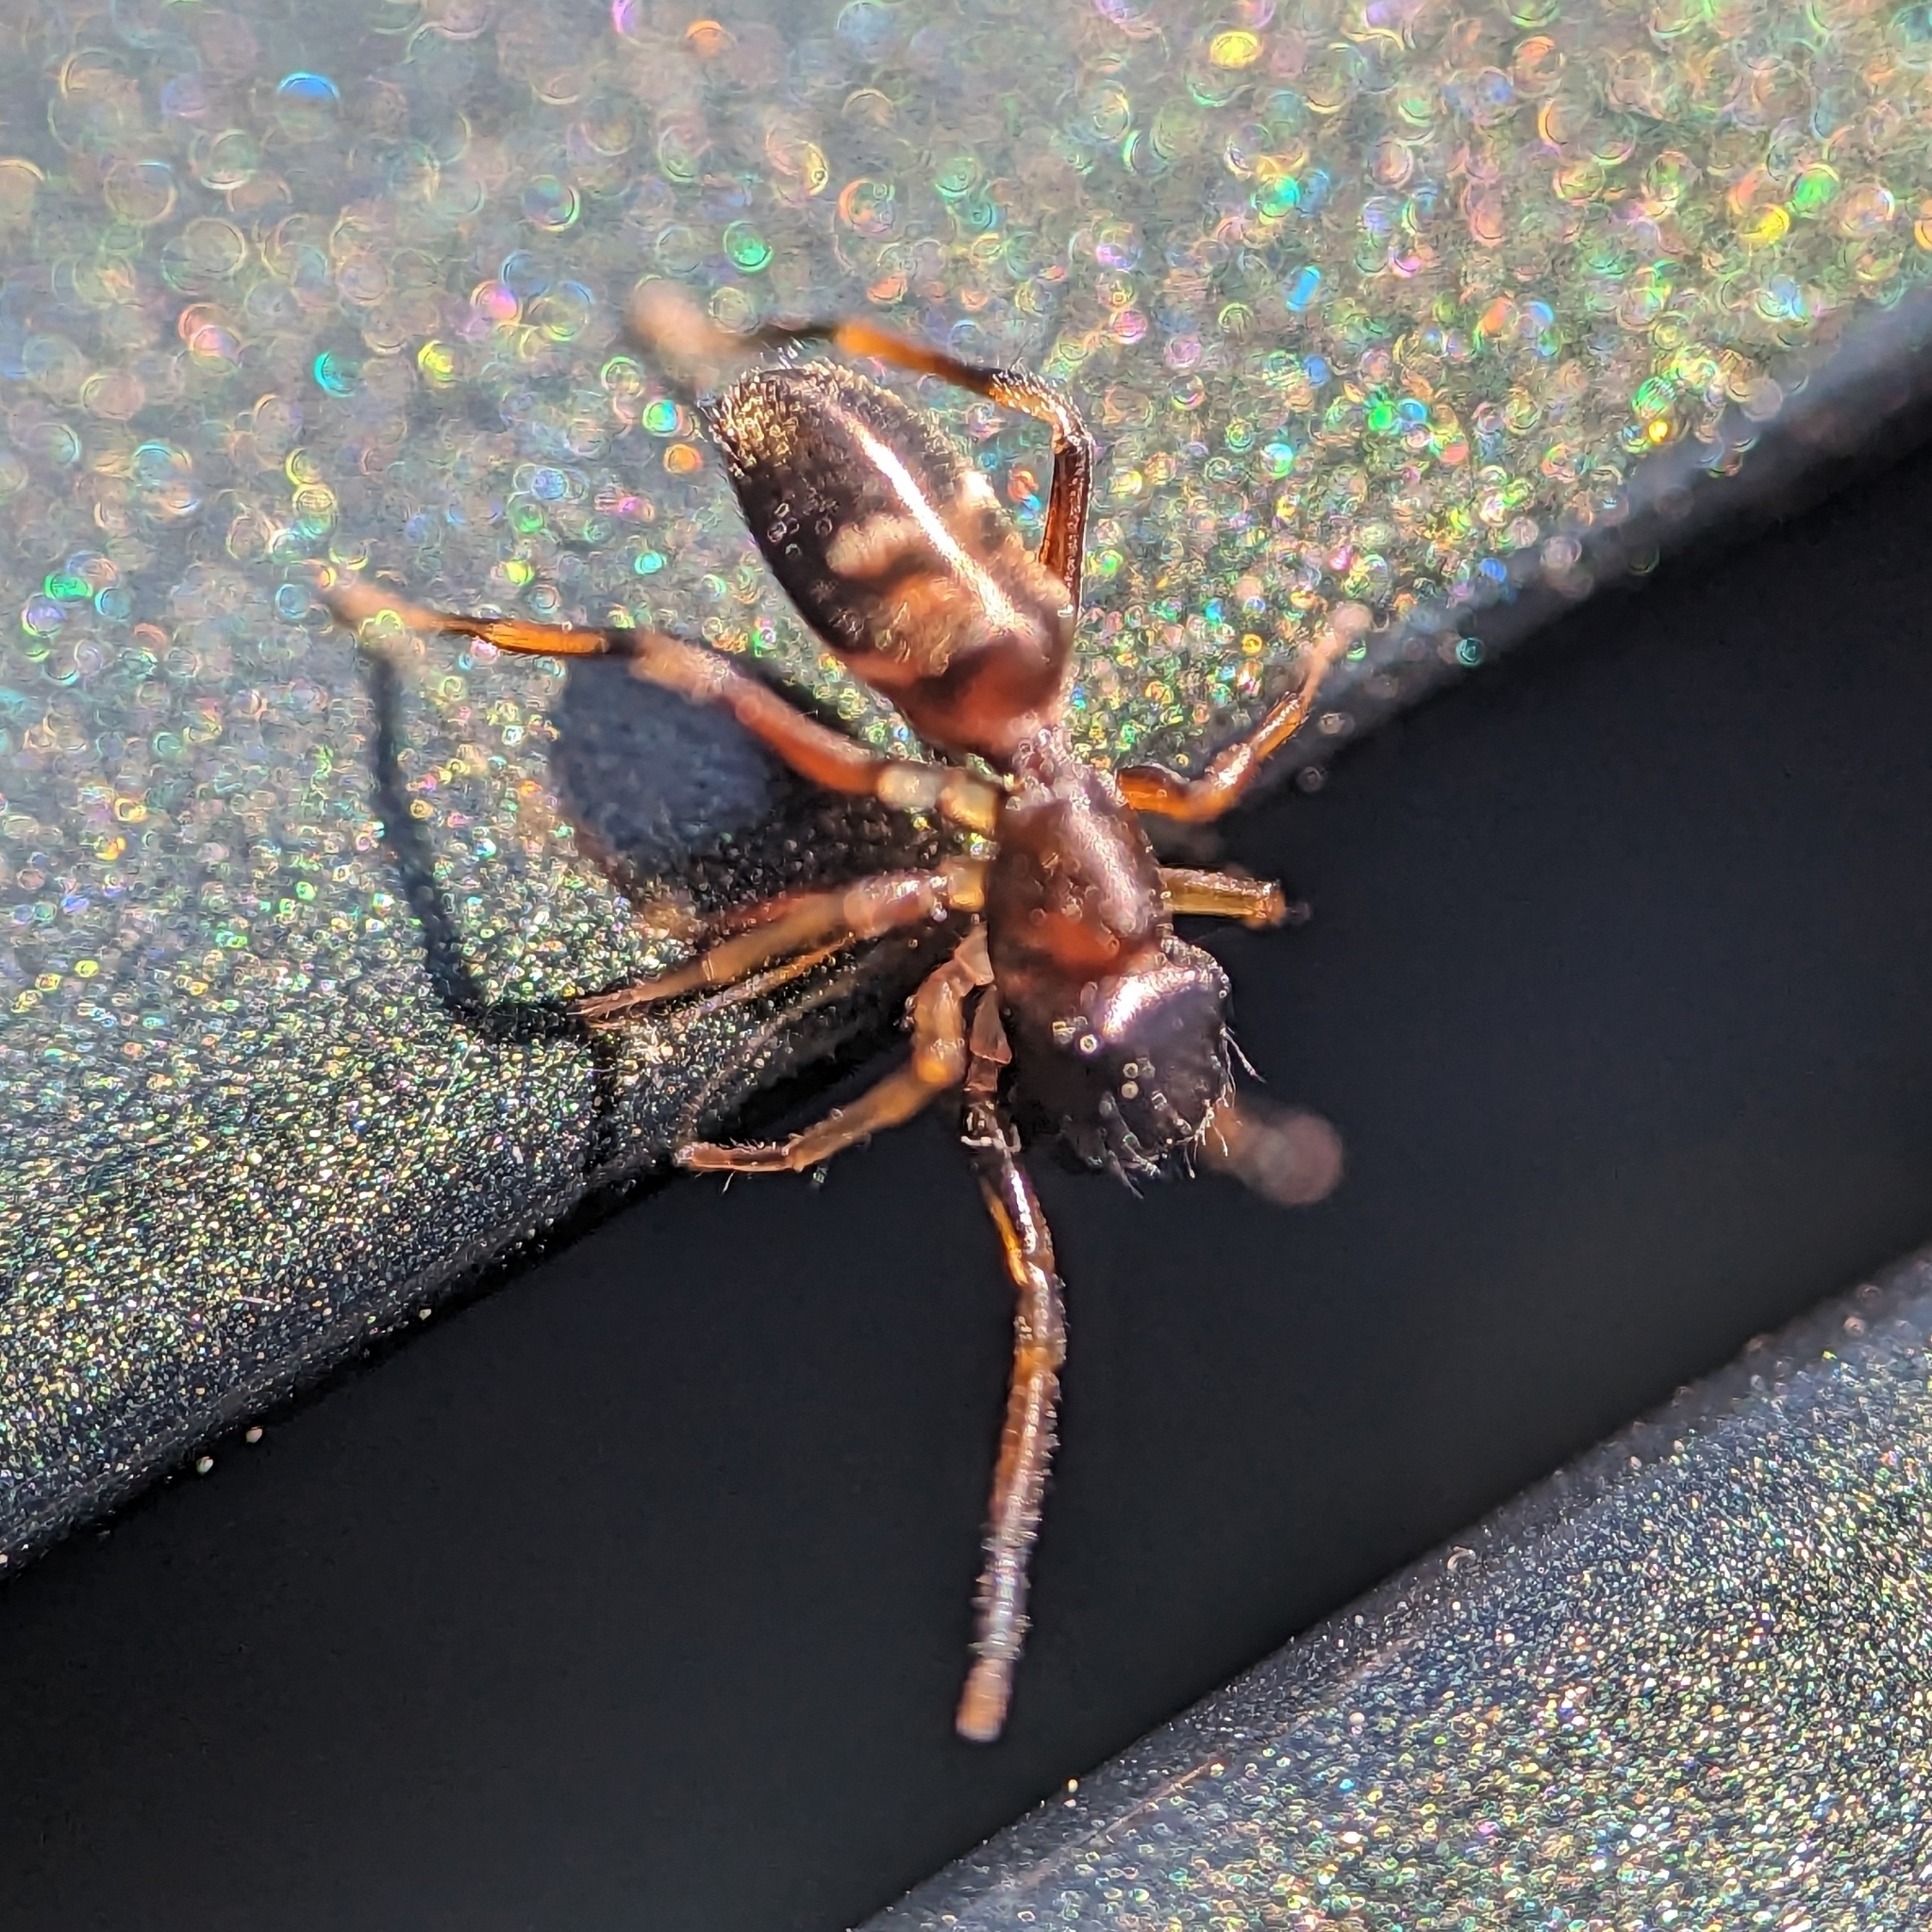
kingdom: Animalia
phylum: Arthropoda
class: Arachnida
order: Araneae
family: Salticidae
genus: Myrmarachne
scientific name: Myrmarachne formicaria
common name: Ant mimic jumping spider
